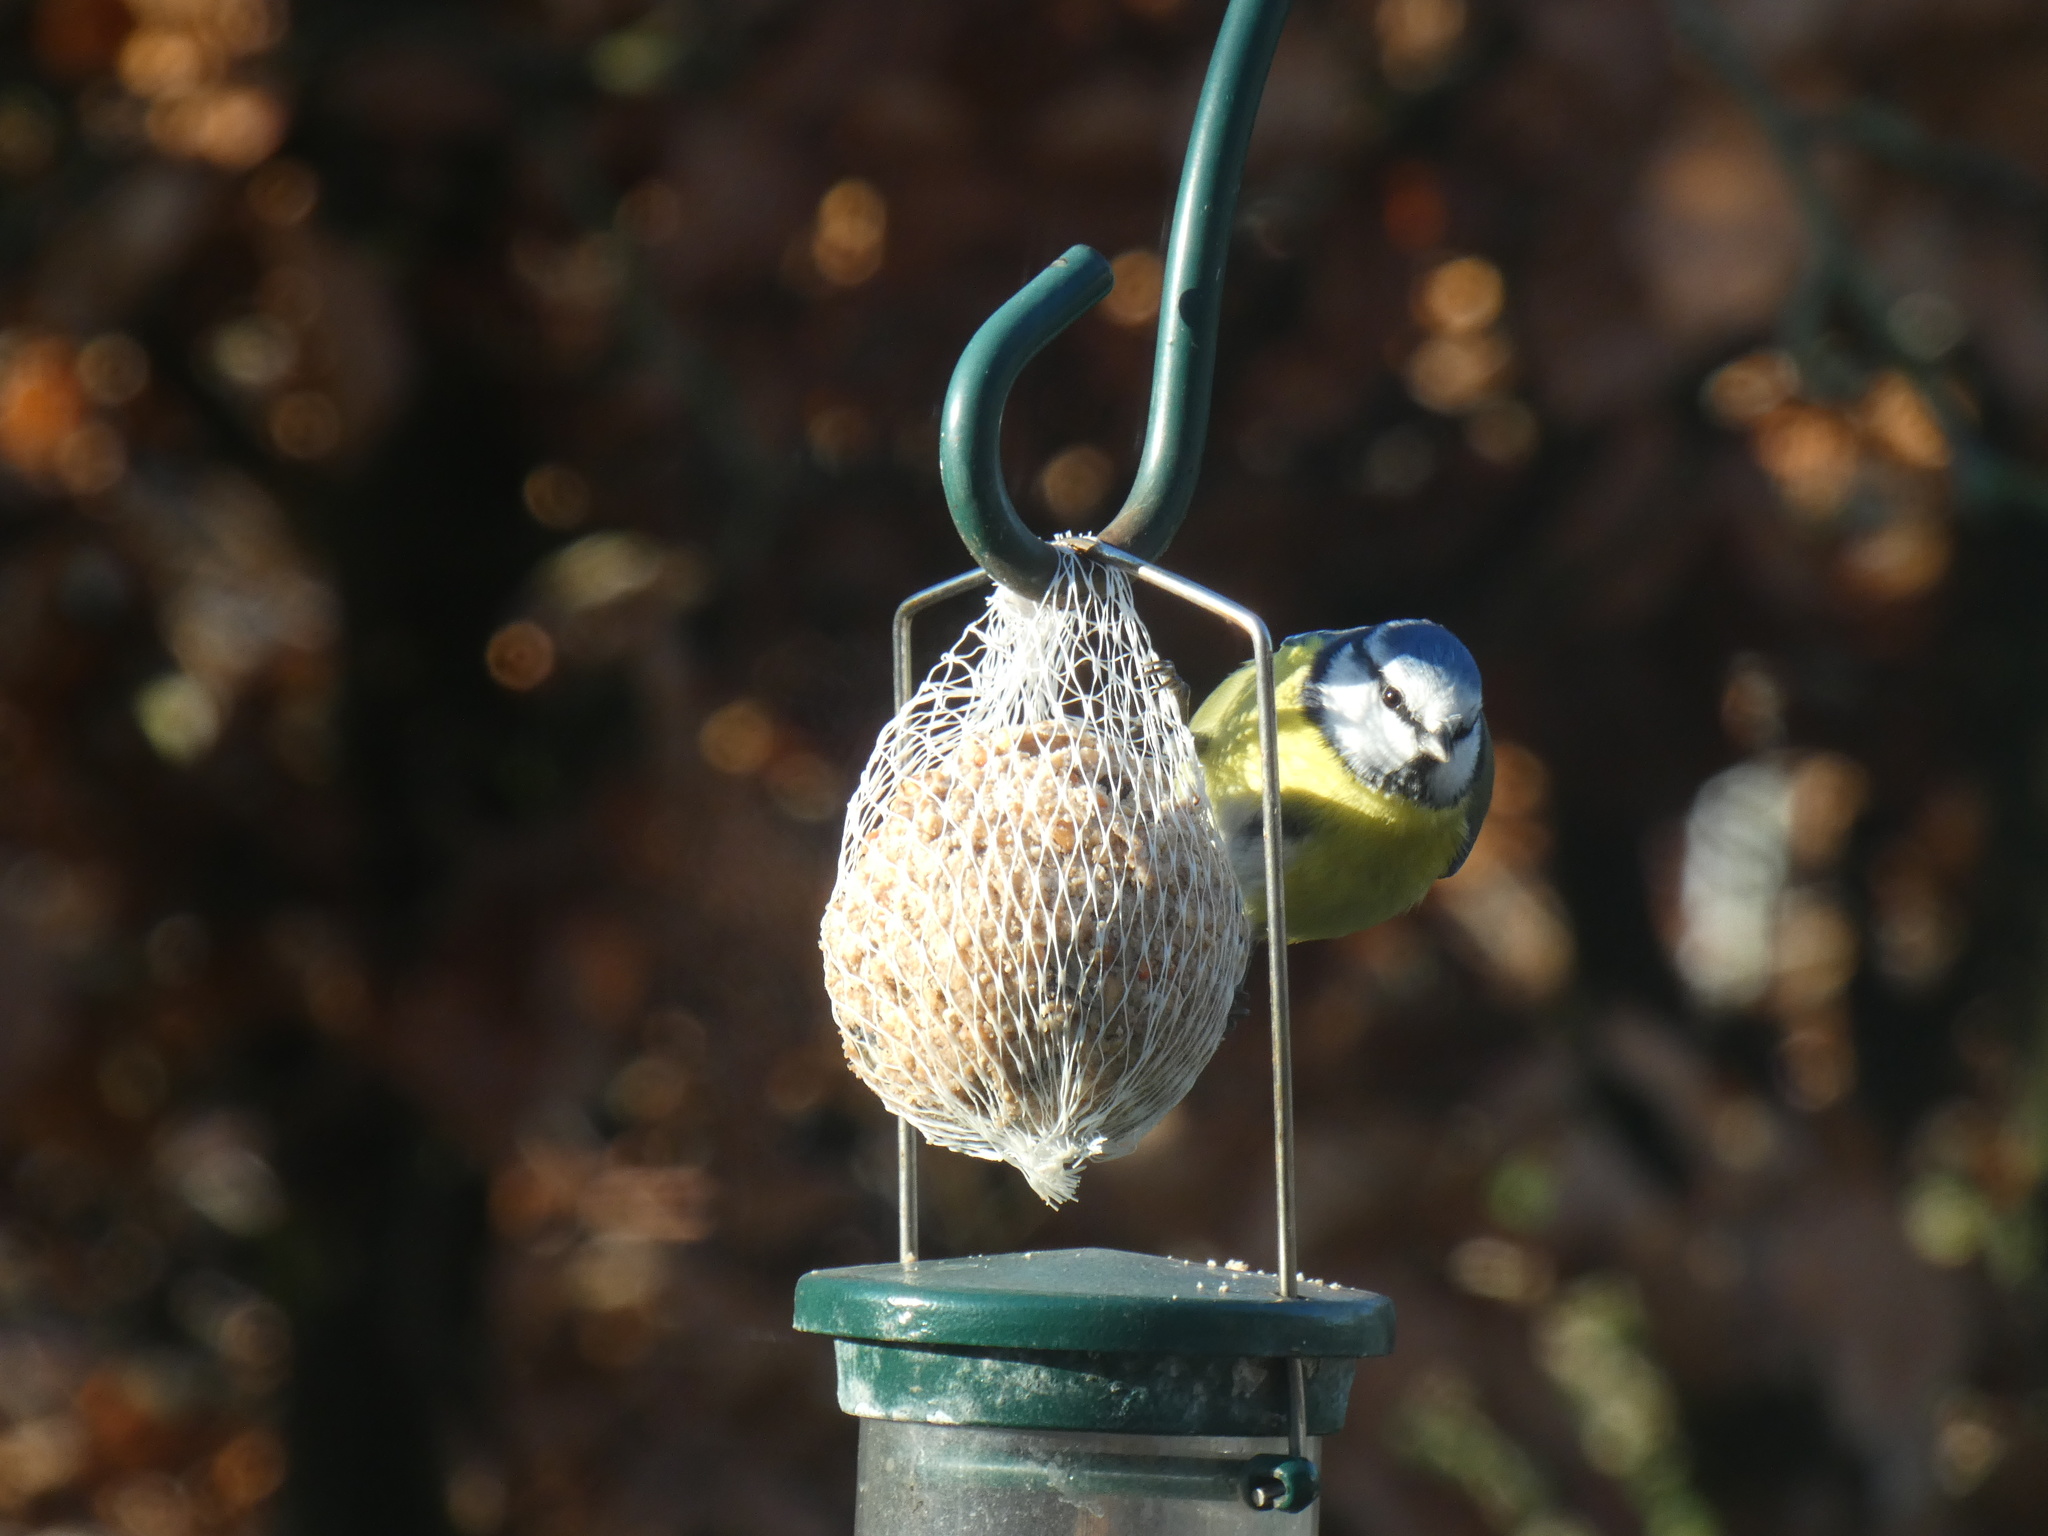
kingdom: Animalia
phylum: Chordata
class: Aves
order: Passeriformes
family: Paridae
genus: Cyanistes
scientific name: Cyanistes caeruleus
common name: Eurasian blue tit
